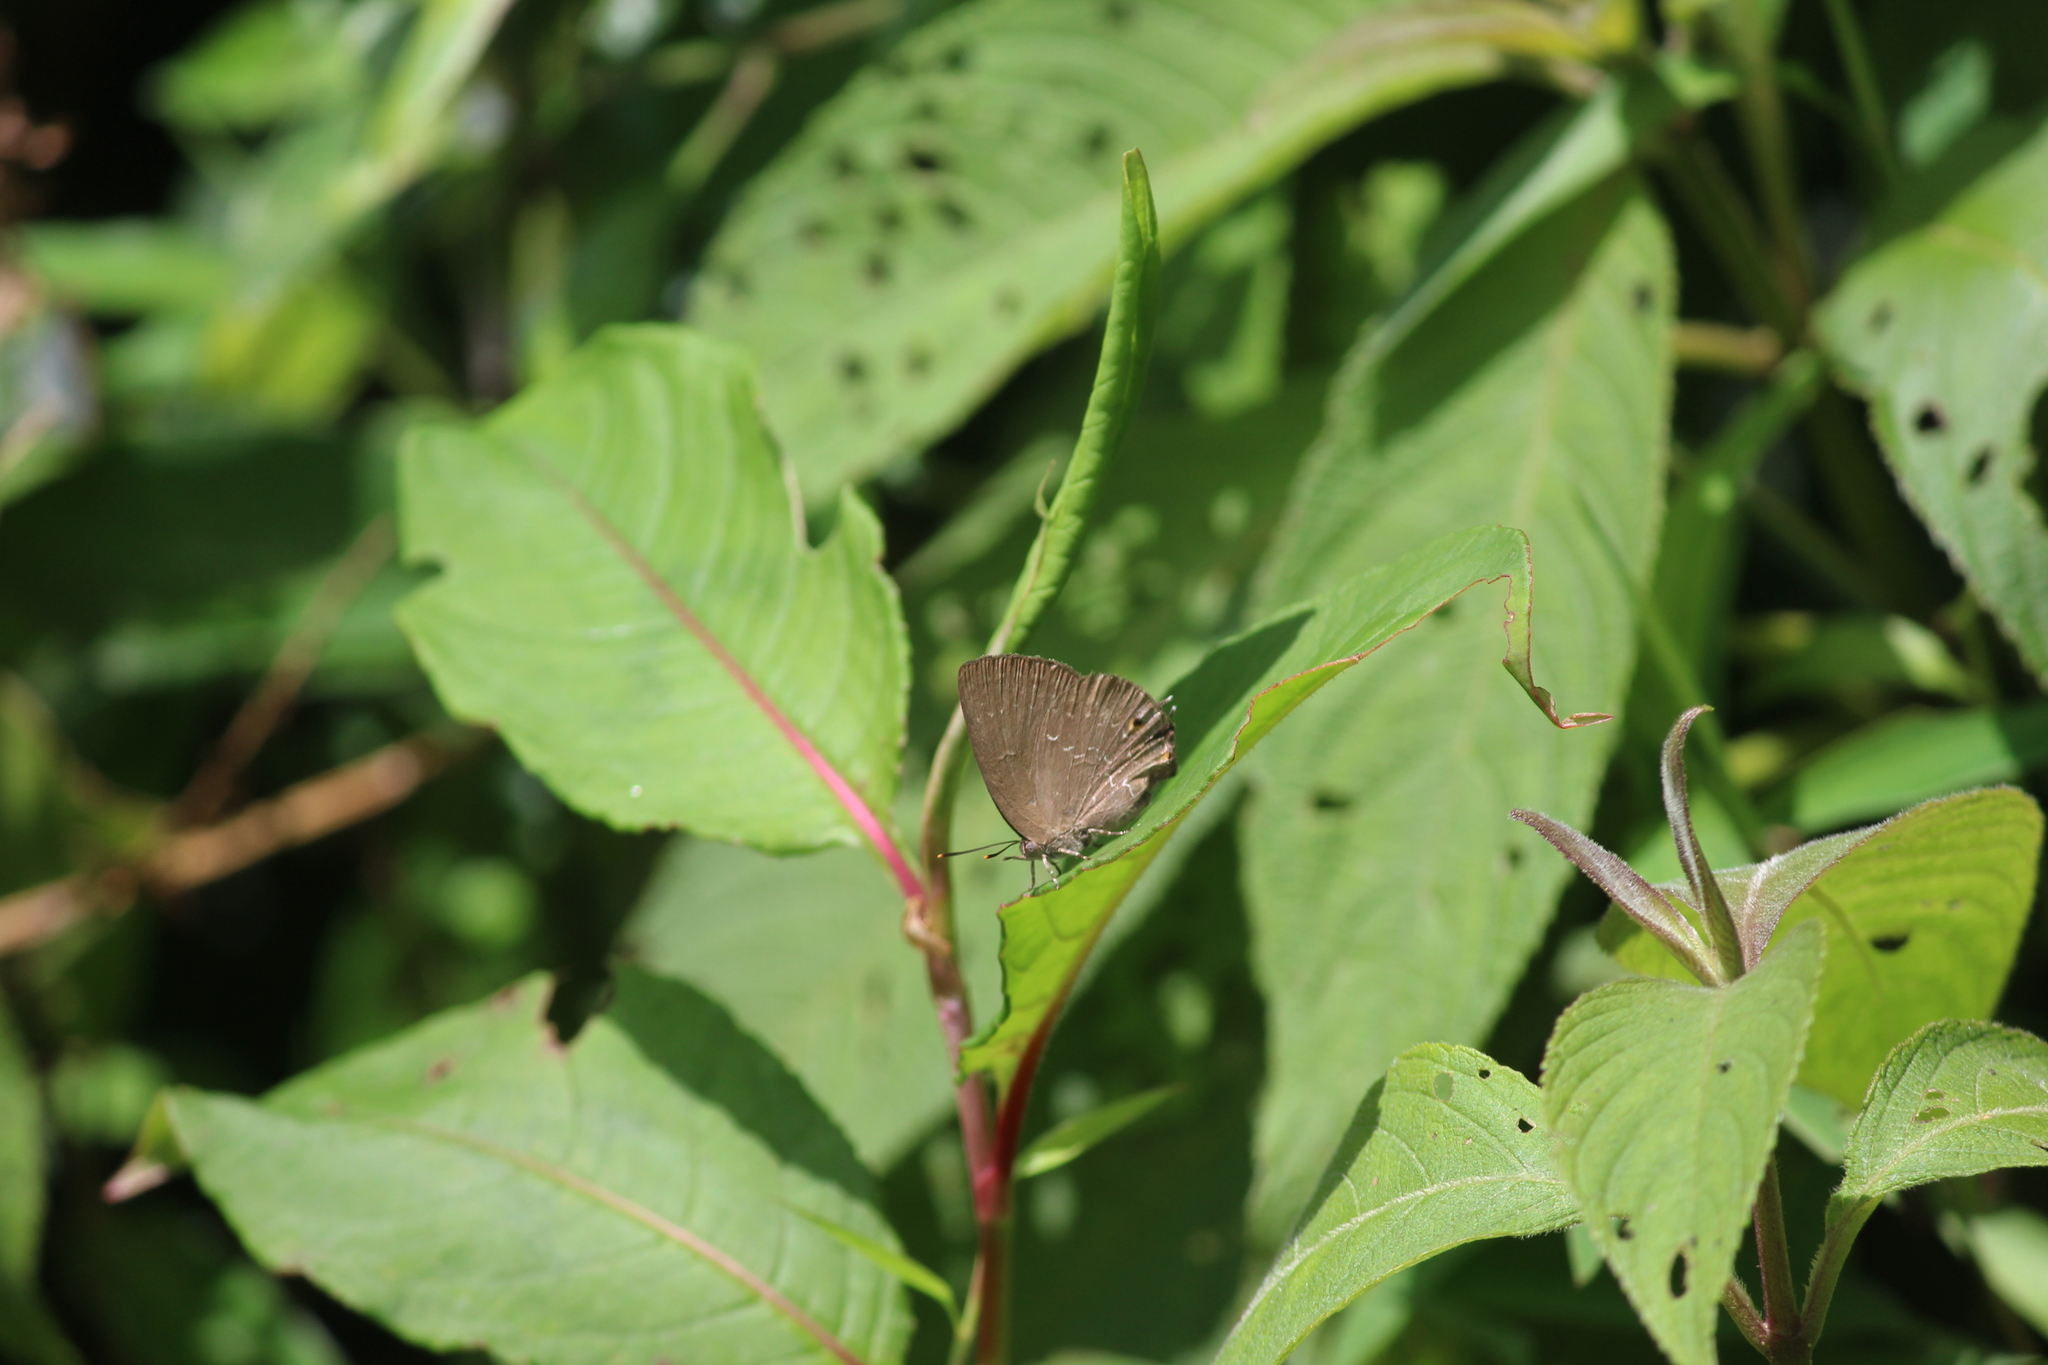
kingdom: Animalia
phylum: Arthropoda
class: Insecta
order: Lepidoptera
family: Lycaenidae
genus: Zinaspa
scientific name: Zinaspa todara
